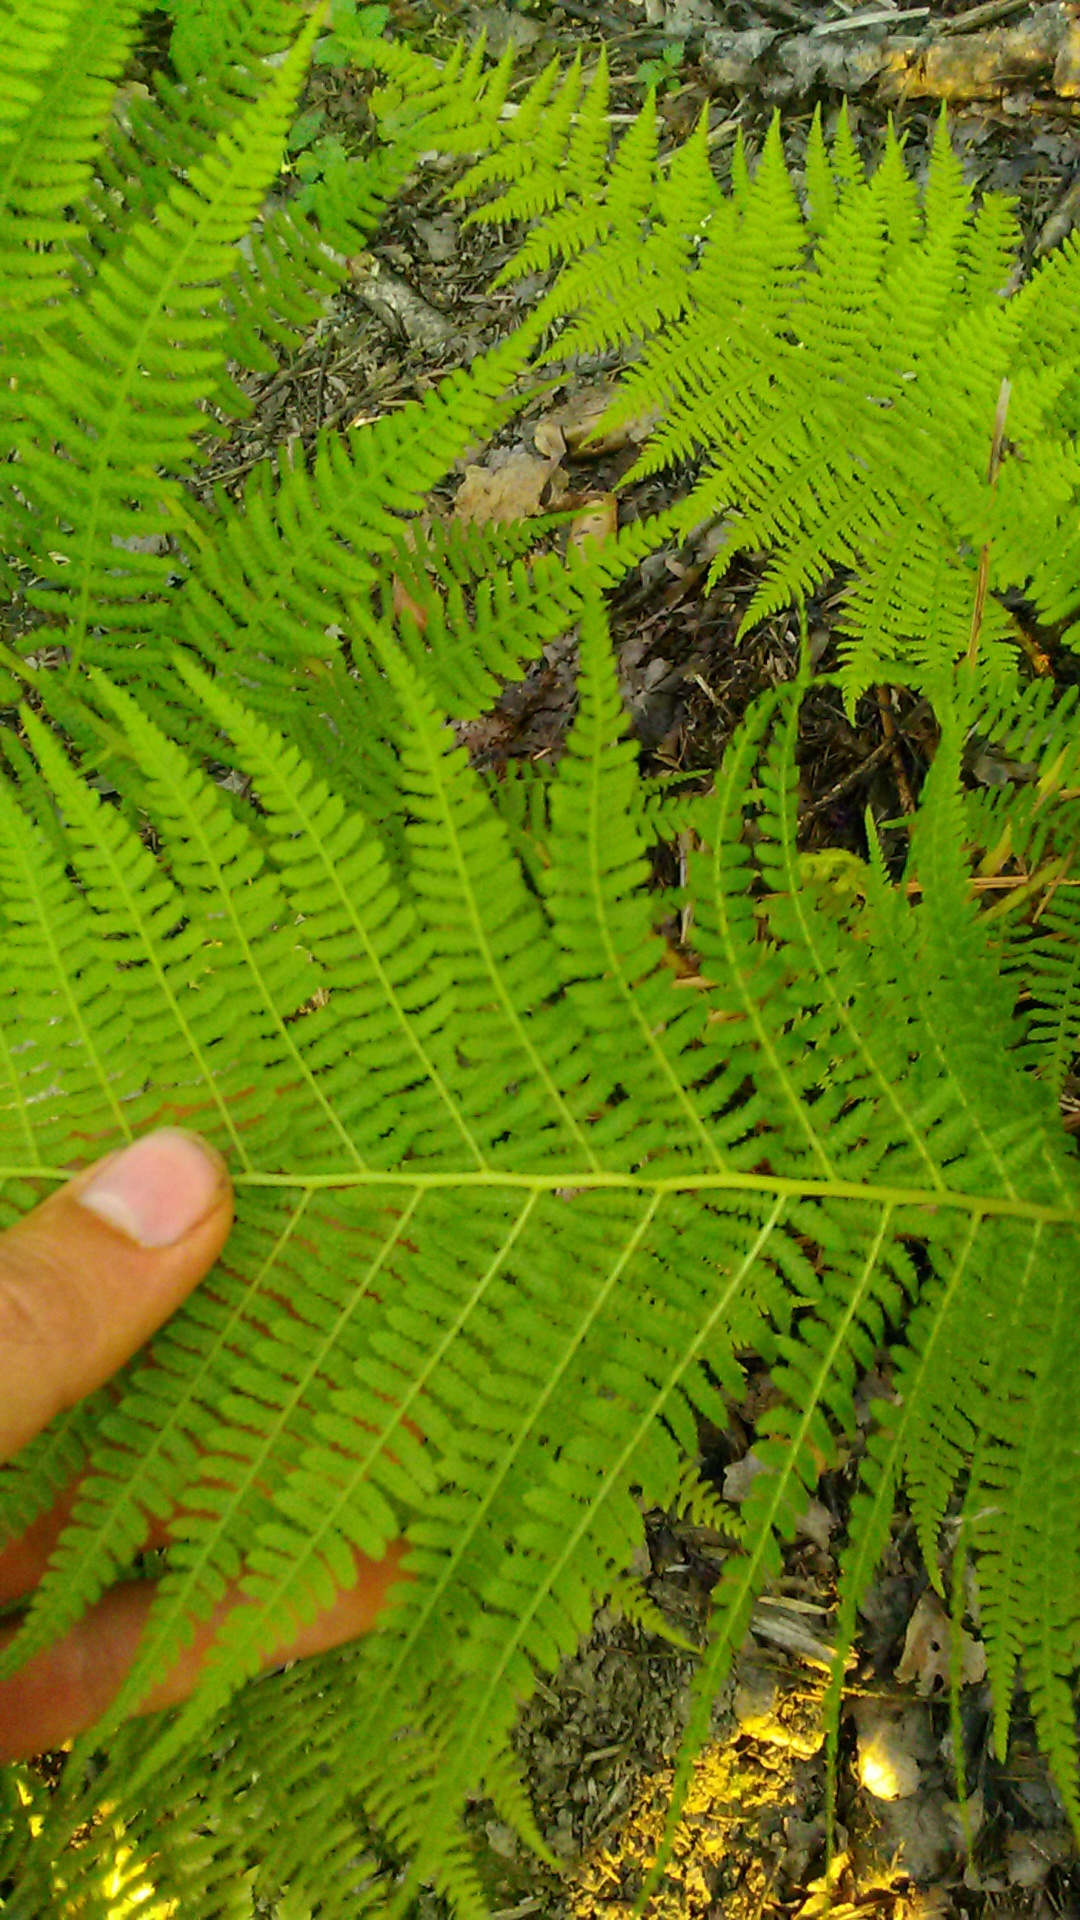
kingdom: Plantae
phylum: Tracheophyta
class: Polypodiopsida
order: Polypodiales
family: Athyriaceae
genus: Athyrium
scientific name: Athyrium filix-femina
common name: Lady fern
